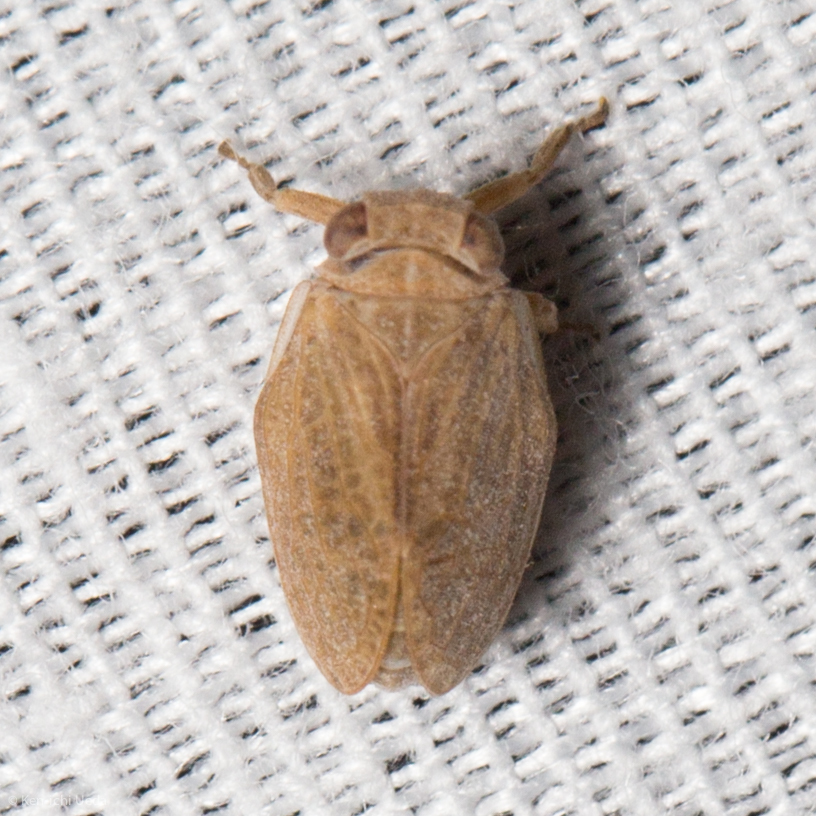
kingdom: Animalia
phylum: Arthropoda
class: Insecta
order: Hemiptera
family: Issidae
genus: Agalmatium
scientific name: Agalmatium bilobum
